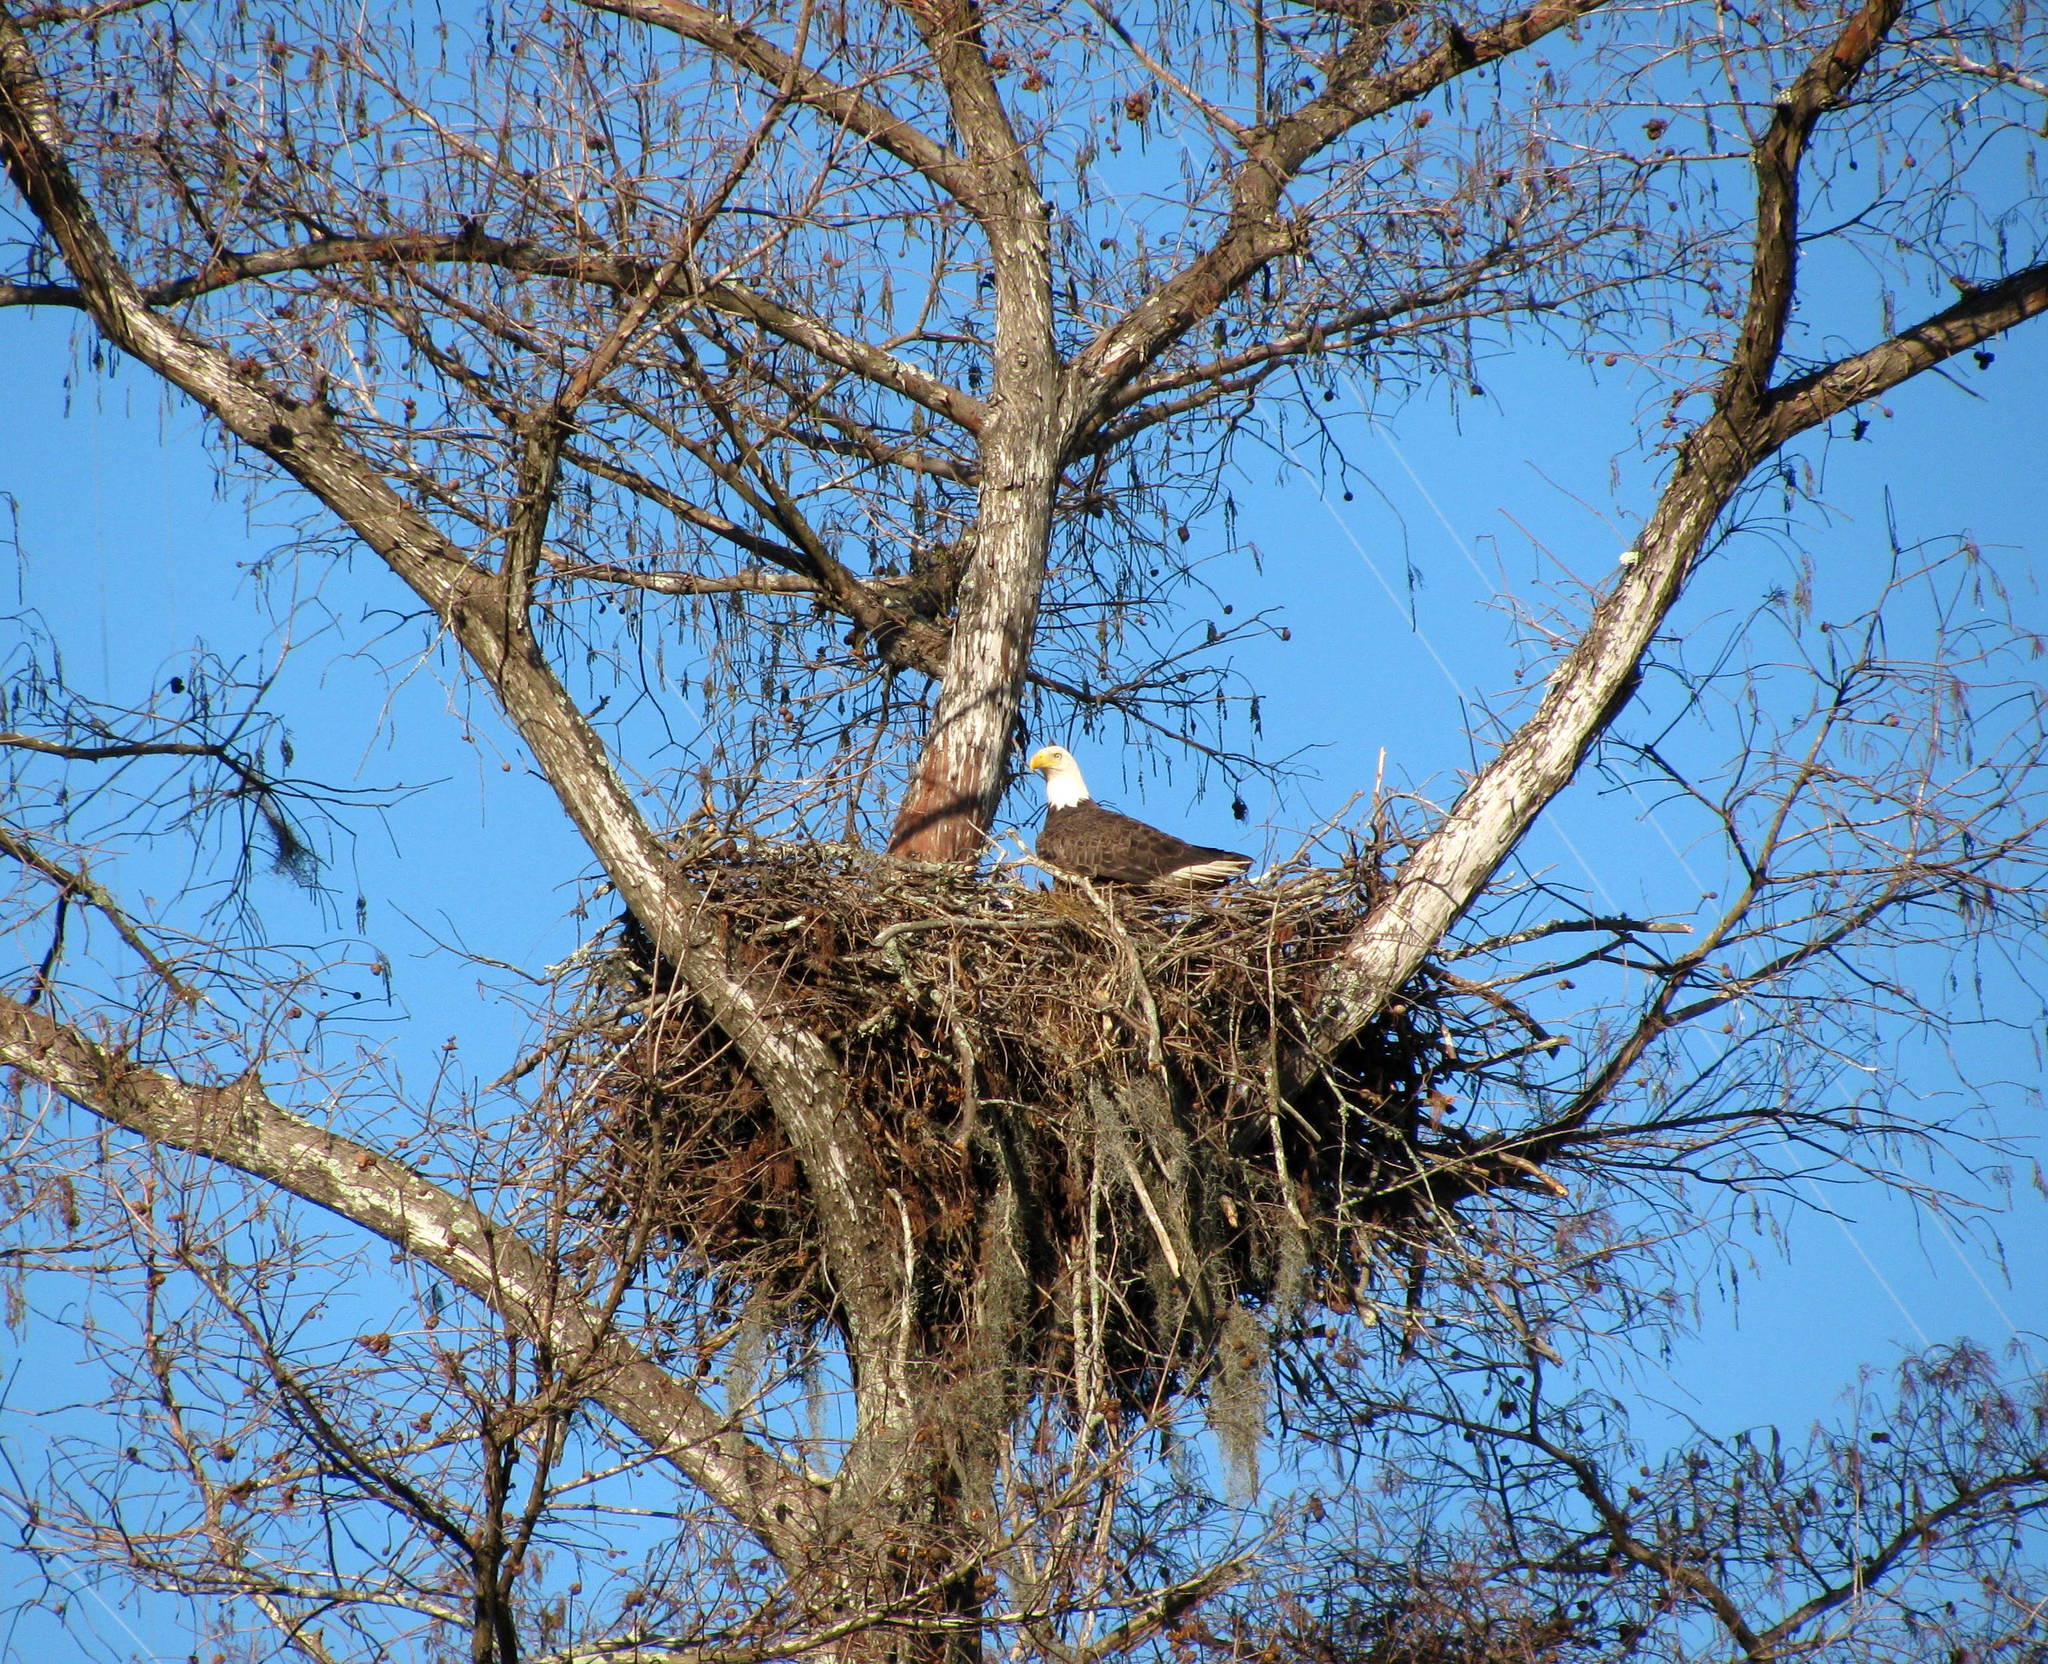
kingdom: Animalia
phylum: Chordata
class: Aves
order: Accipitriformes
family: Accipitridae
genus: Haliaeetus
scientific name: Haliaeetus leucocephalus
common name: Bald eagle
